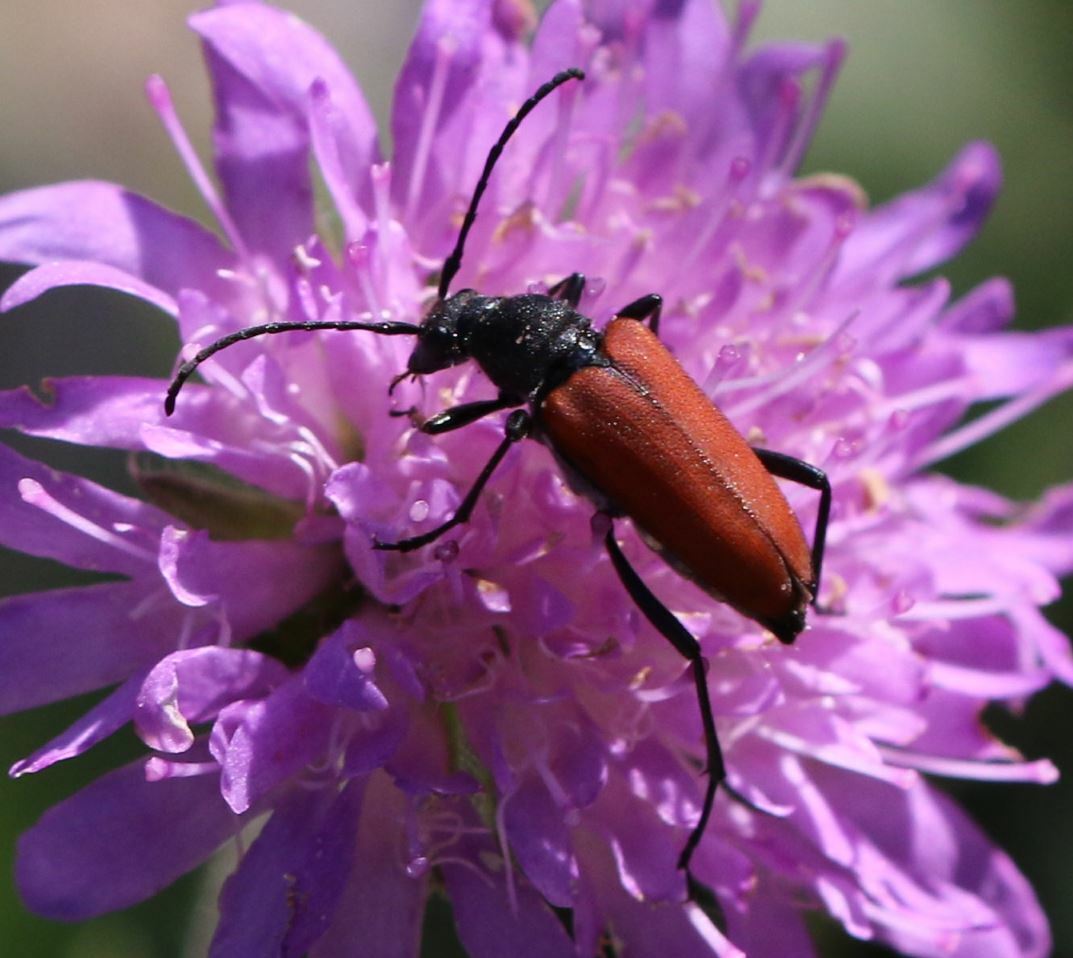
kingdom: Animalia
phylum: Arthropoda
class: Insecta
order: Coleoptera
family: Cerambycidae
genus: Anastrangalia
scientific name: Anastrangalia sanguinolenta
